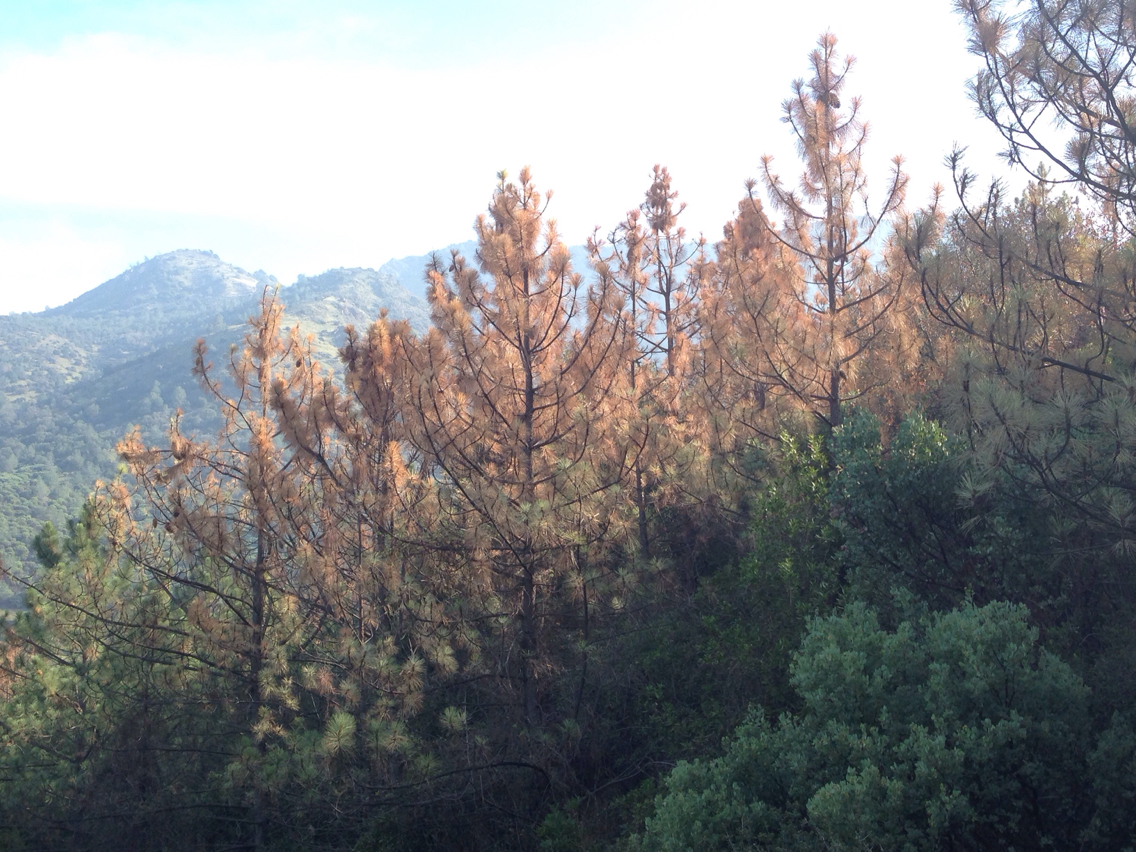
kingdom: Plantae
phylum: Tracheophyta
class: Pinopsida
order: Pinales
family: Pinaceae
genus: Pinus
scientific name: Pinus coulteri
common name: Coulter pine
